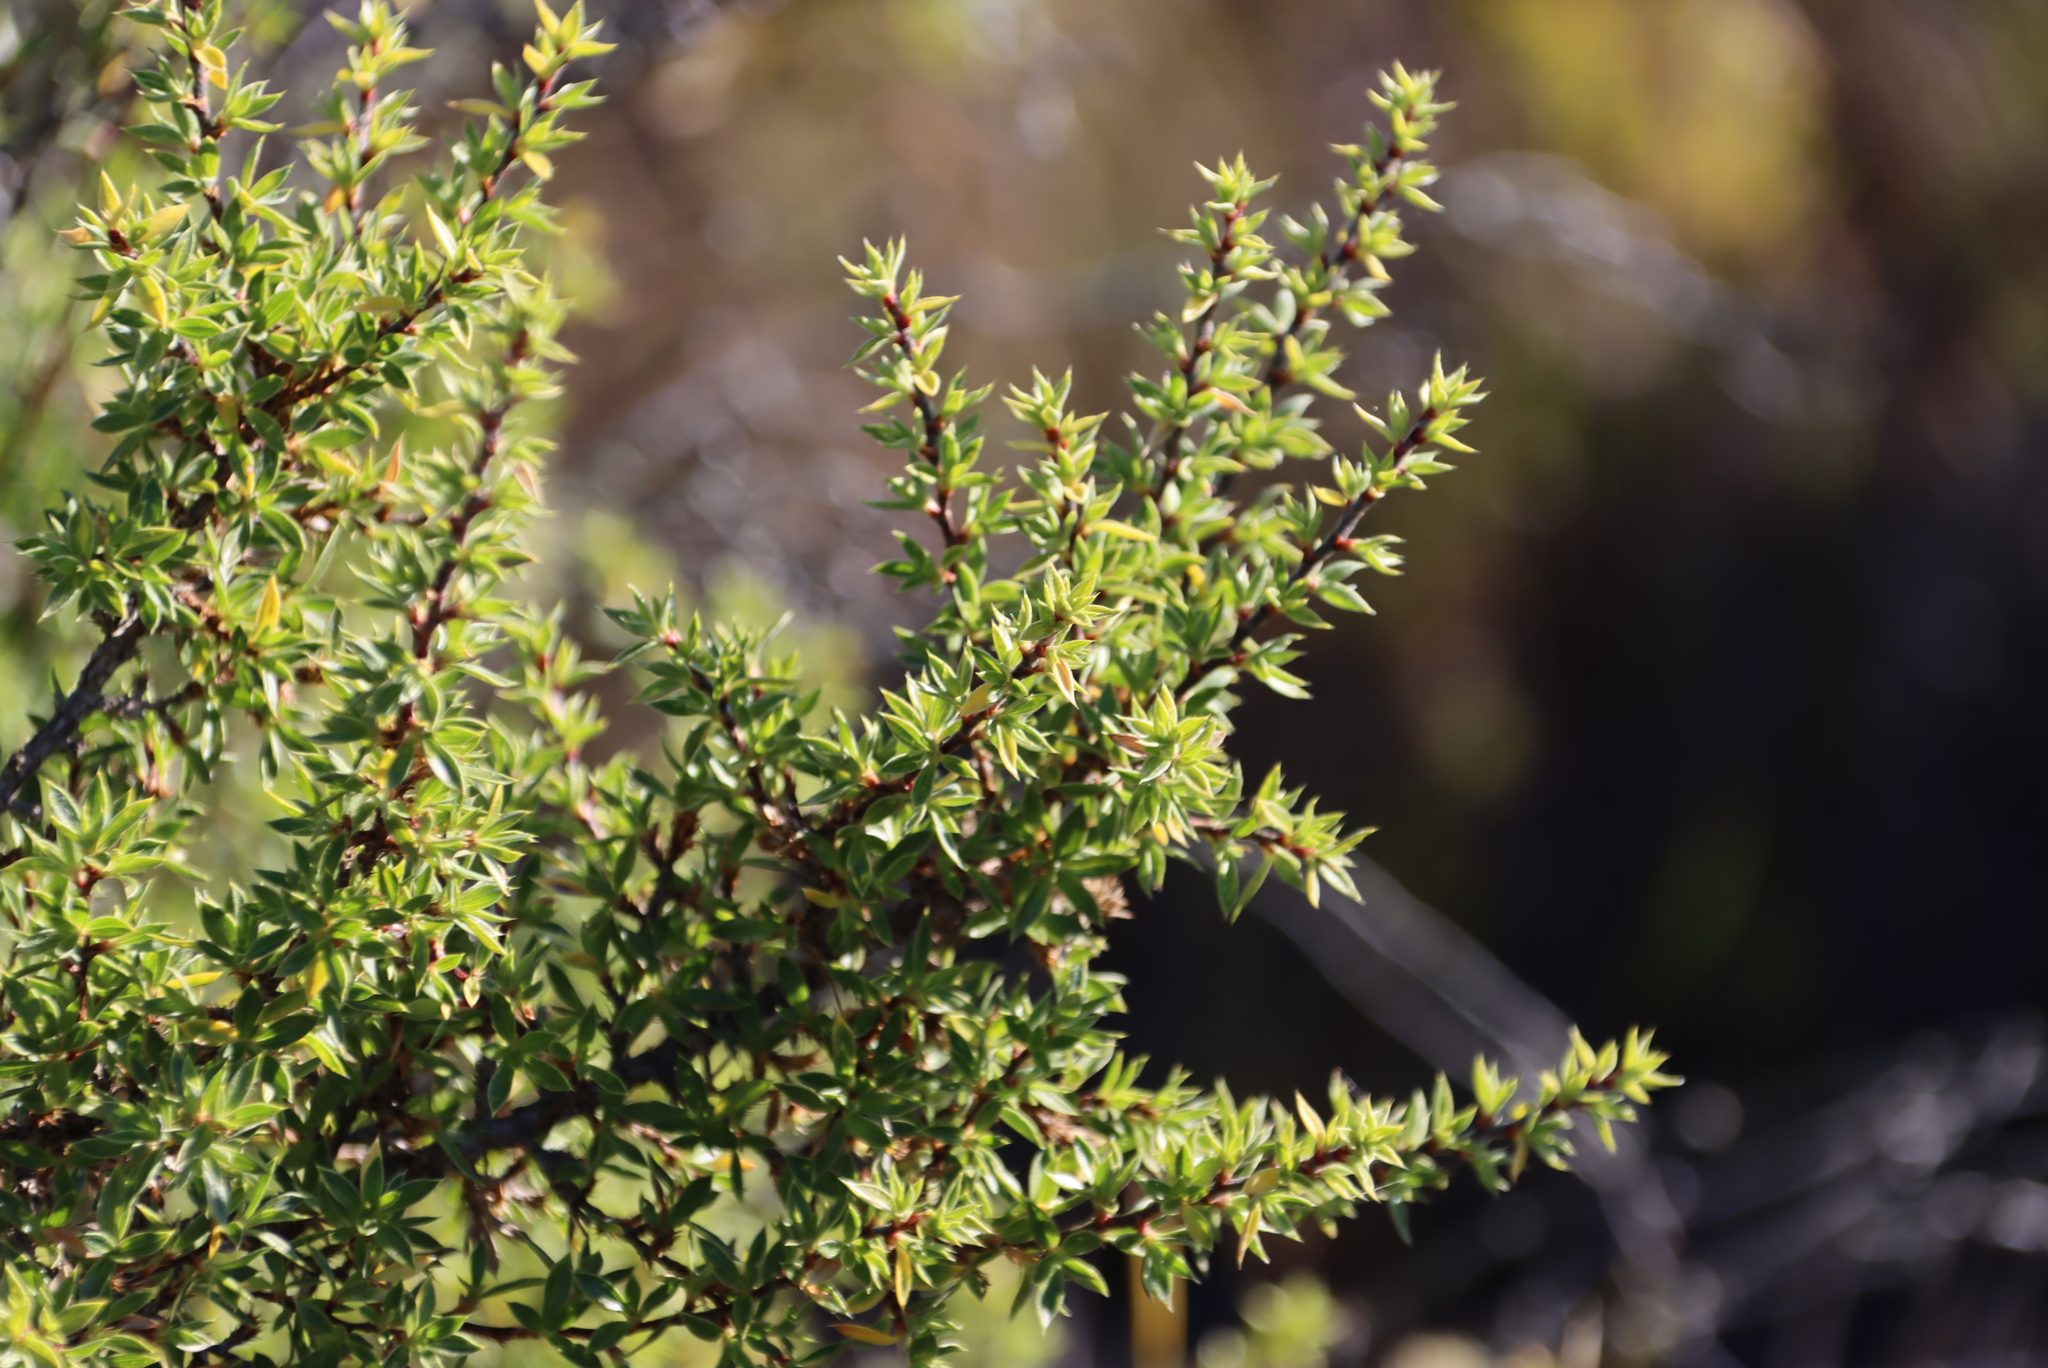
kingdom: Plantae
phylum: Tracheophyta
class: Magnoliopsida
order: Rosales
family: Rosaceae
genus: Cliffortia
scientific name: Cliffortia ruscifolia
